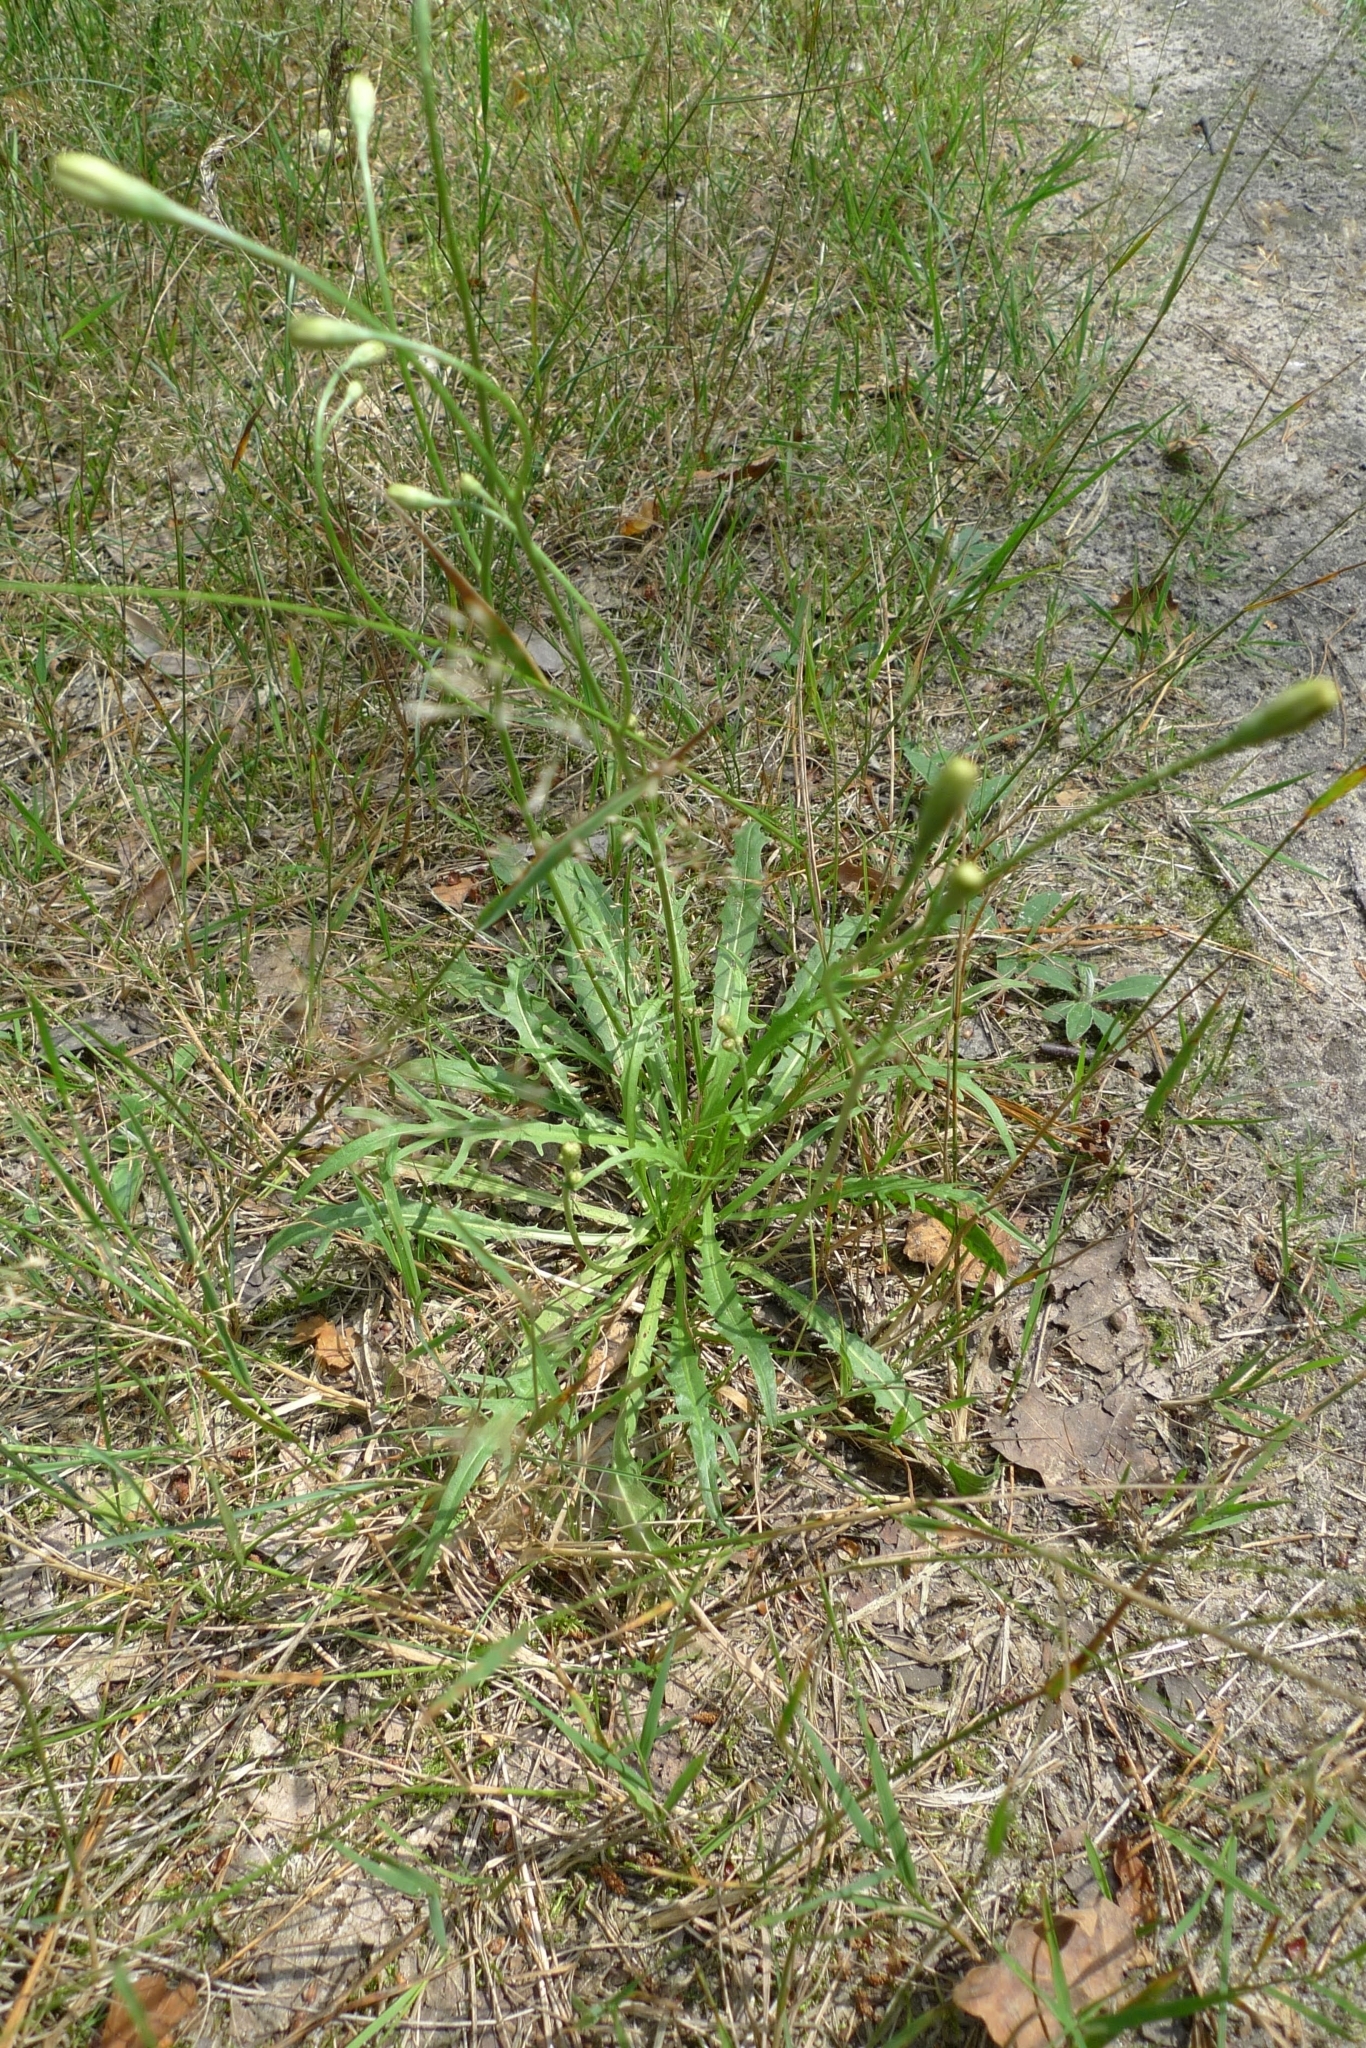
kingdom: Plantae
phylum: Tracheophyta
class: Magnoliopsida
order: Asterales
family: Asteraceae
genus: Scorzoneroides
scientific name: Scorzoneroides autumnalis
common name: Autumn hawkbit
